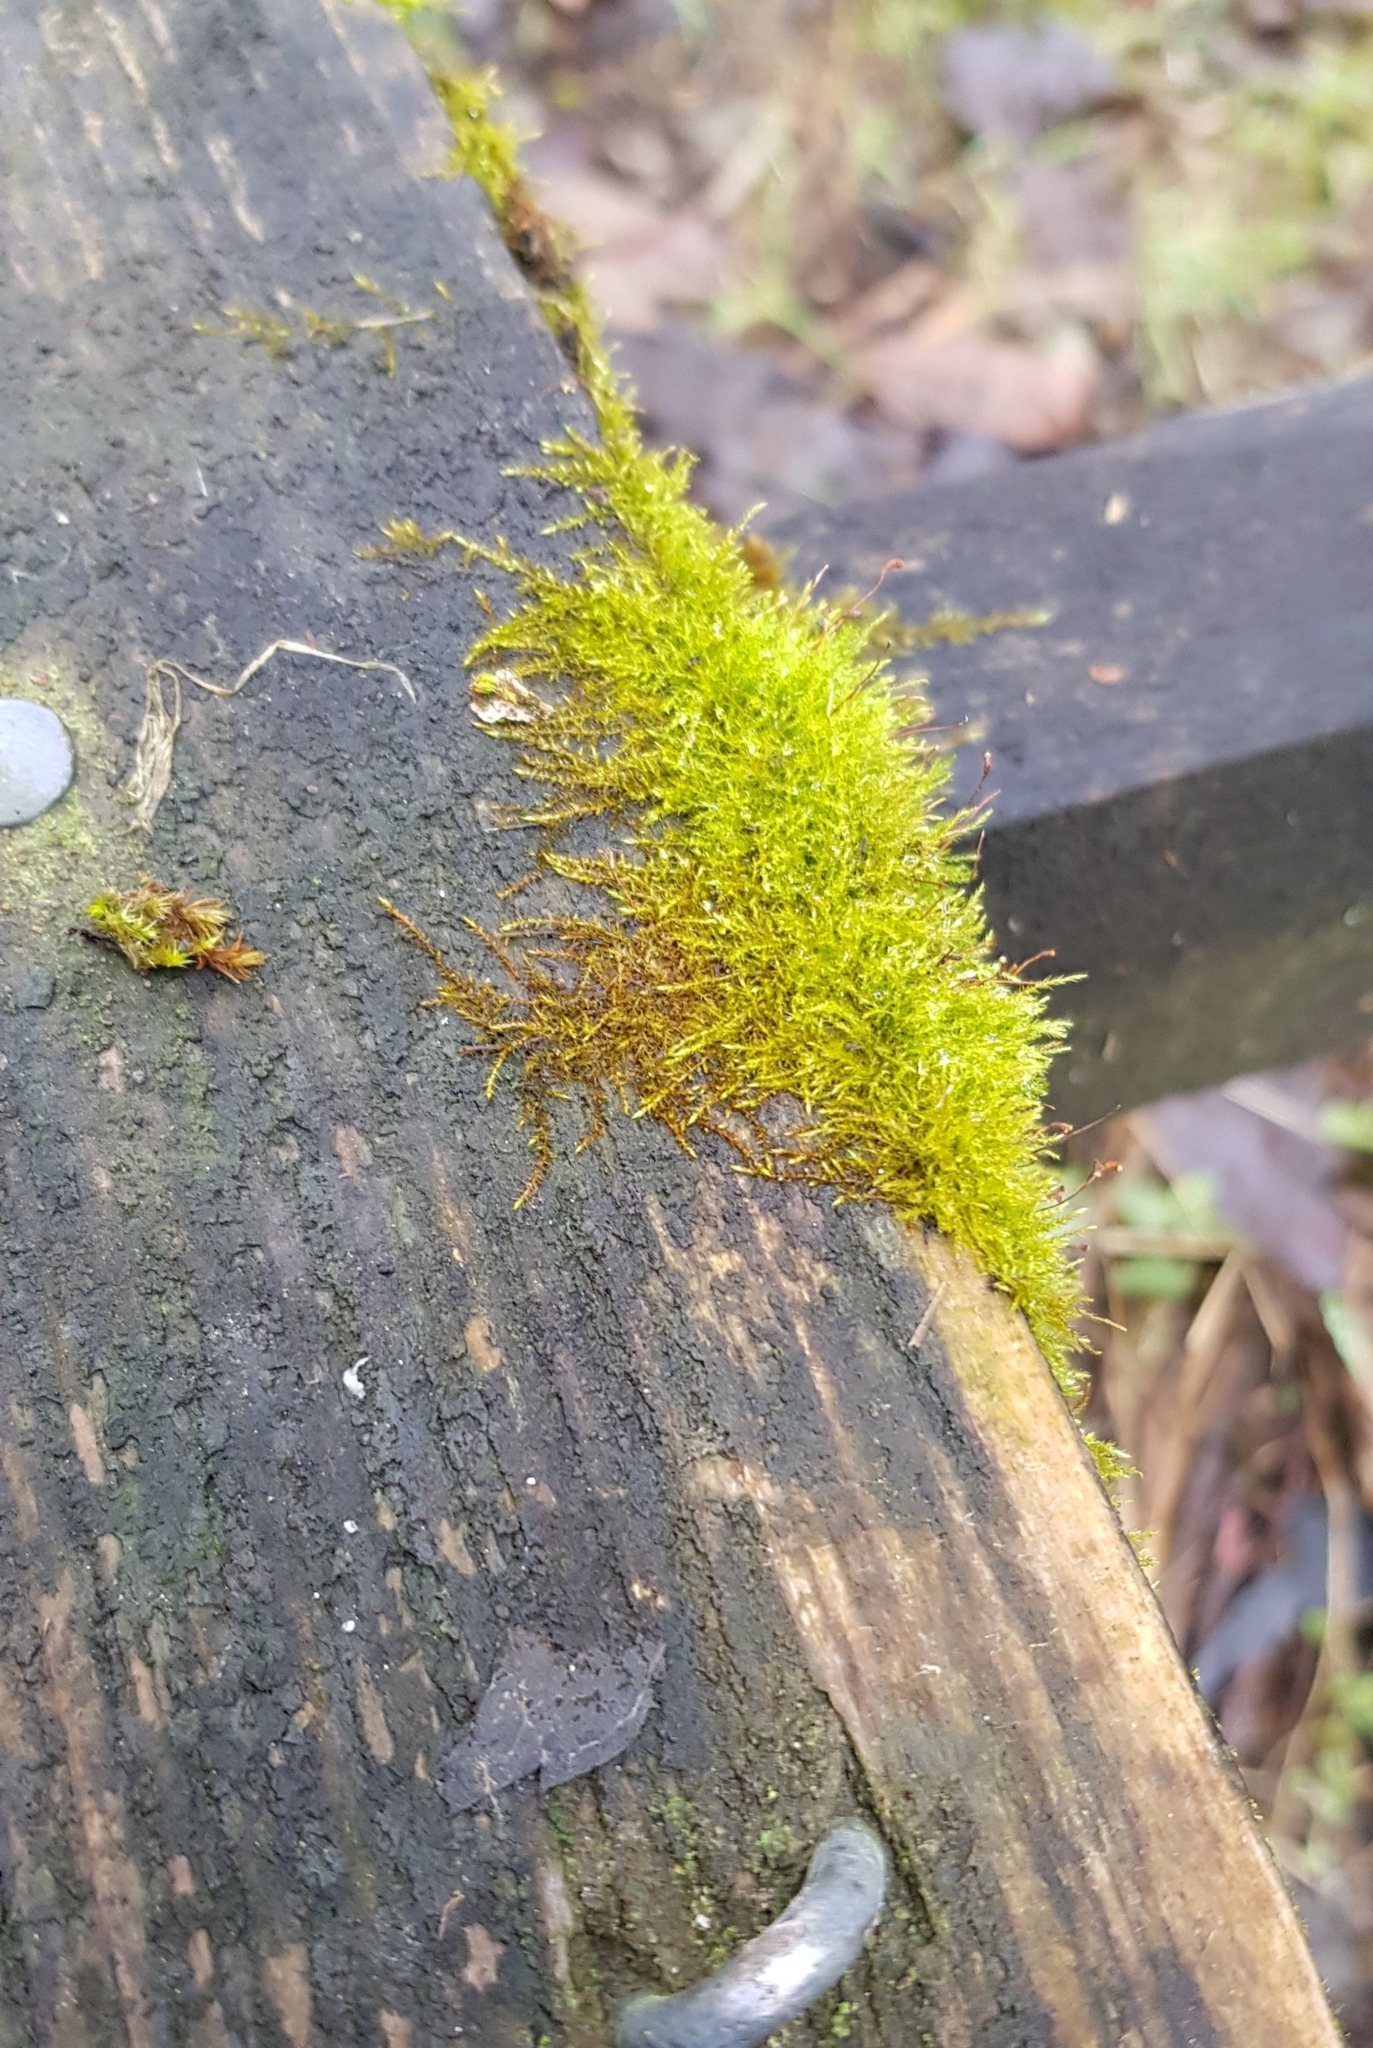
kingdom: Plantae
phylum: Bryophyta
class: Bryopsida
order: Hypnales
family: Amblystegiaceae
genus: Amblystegium
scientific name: Amblystegium serpens
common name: Jurkatzka's feather moss
